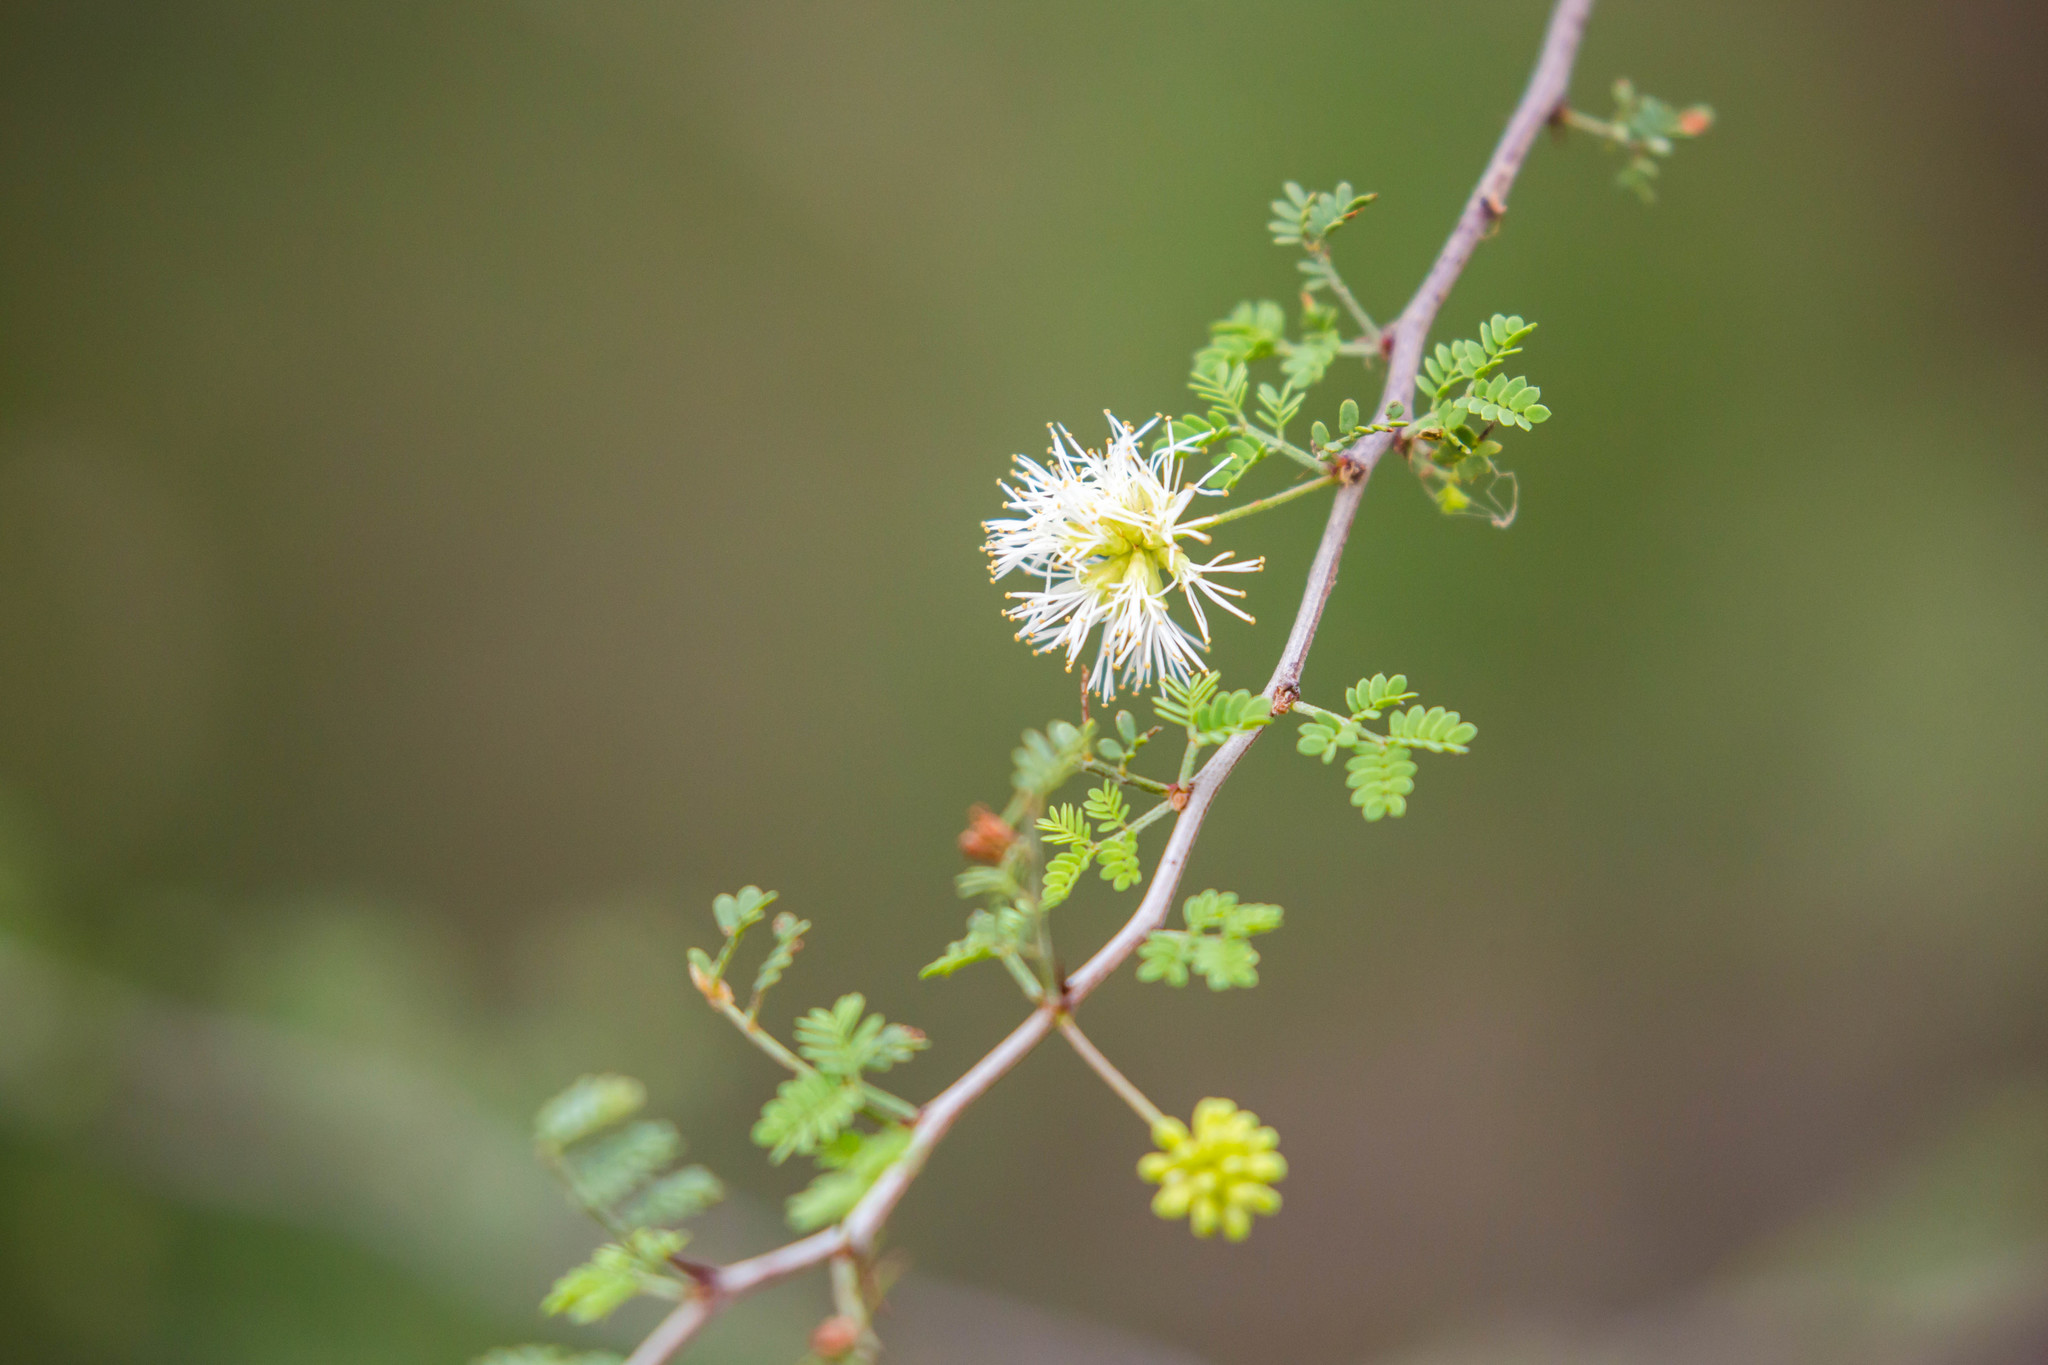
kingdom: Plantae
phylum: Tracheophyta
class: Magnoliopsida
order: Fabales
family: Fabaceae
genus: Mimosa
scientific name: Mimosa texana
